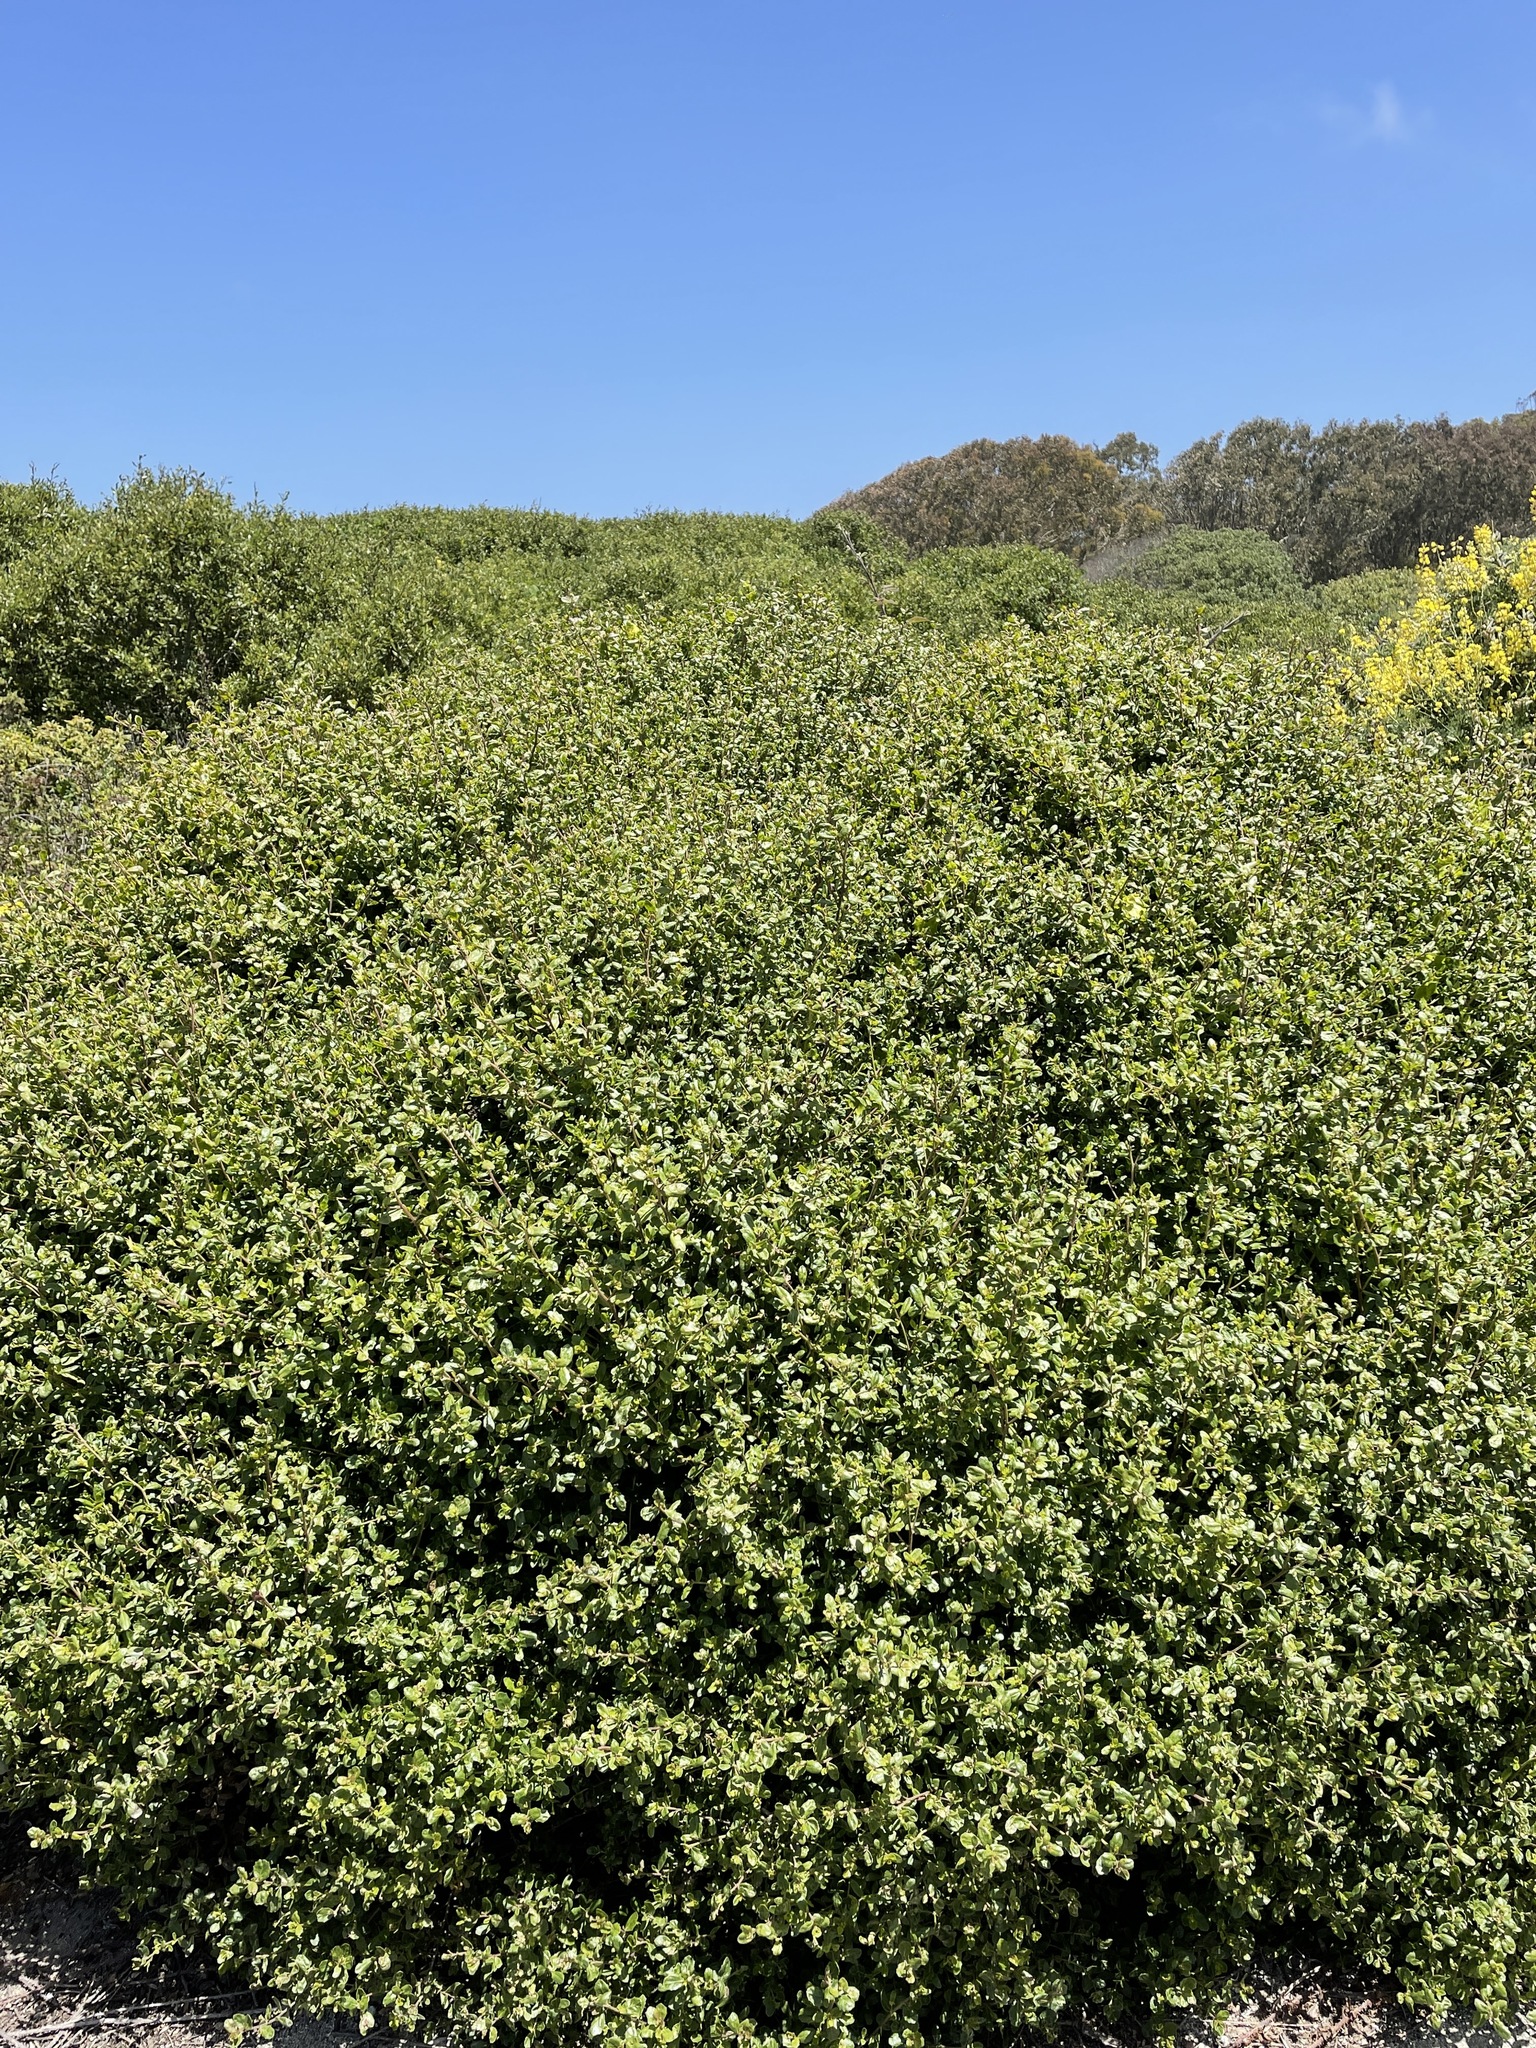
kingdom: Plantae
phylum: Tracheophyta
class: Magnoliopsida
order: Asterales
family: Asteraceae
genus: Baccharis
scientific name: Baccharis pilularis
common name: Coyotebrush
